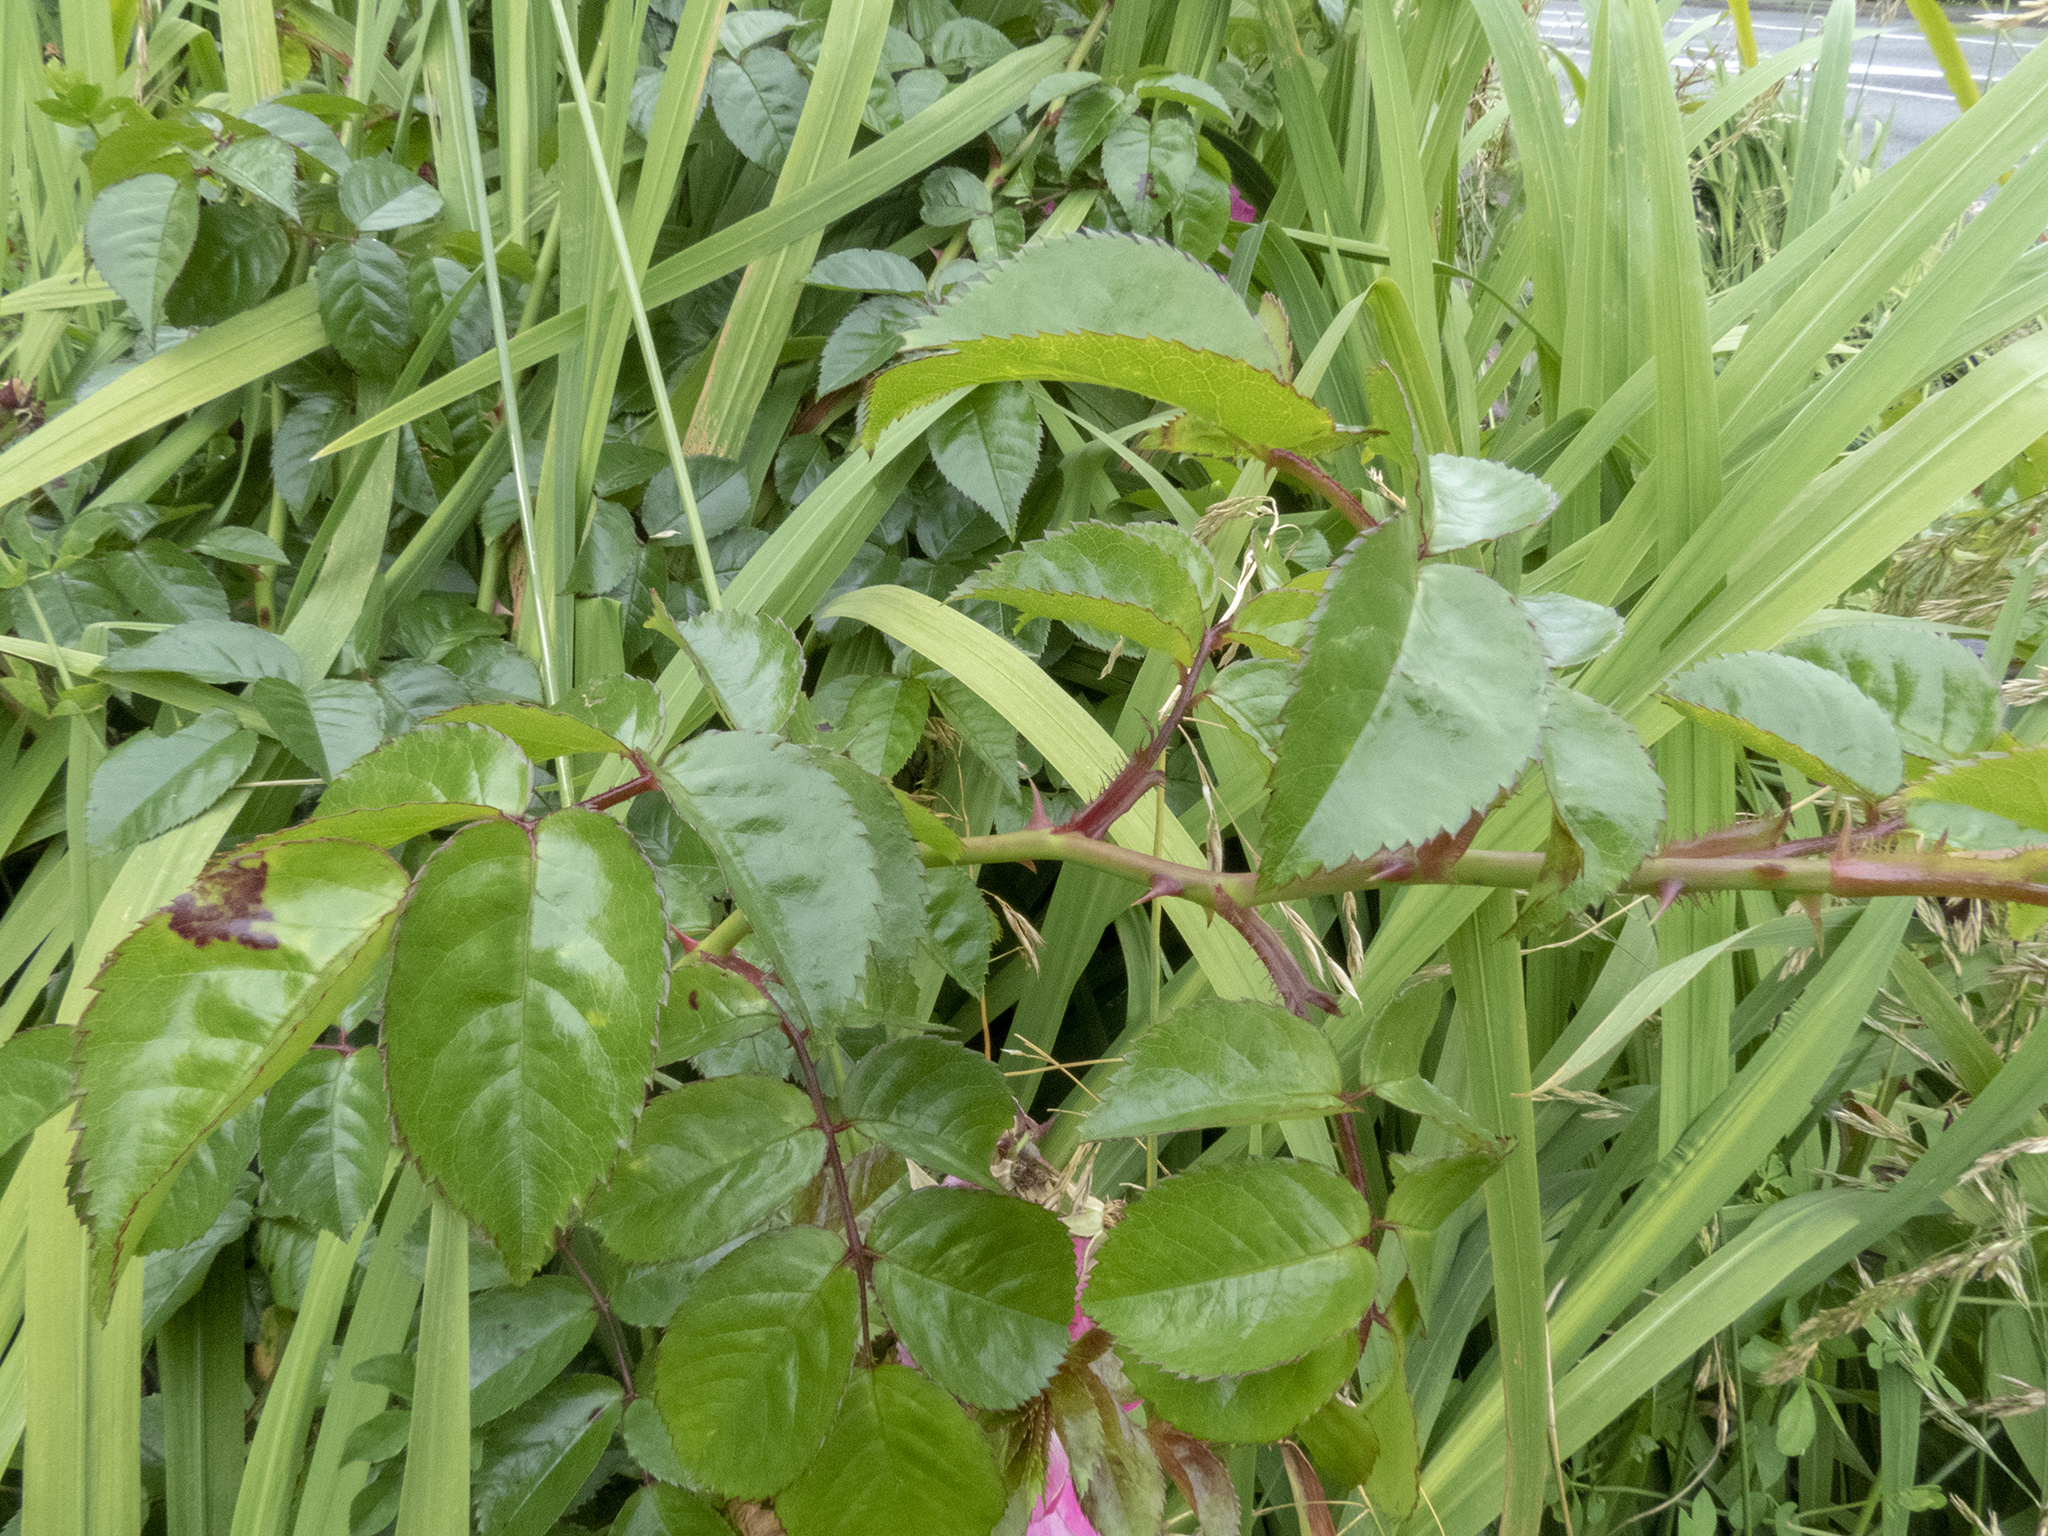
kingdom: Plantae
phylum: Tracheophyta
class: Magnoliopsida
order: Rosales
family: Rosaceae
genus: Rosa
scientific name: Rosa lucieae
